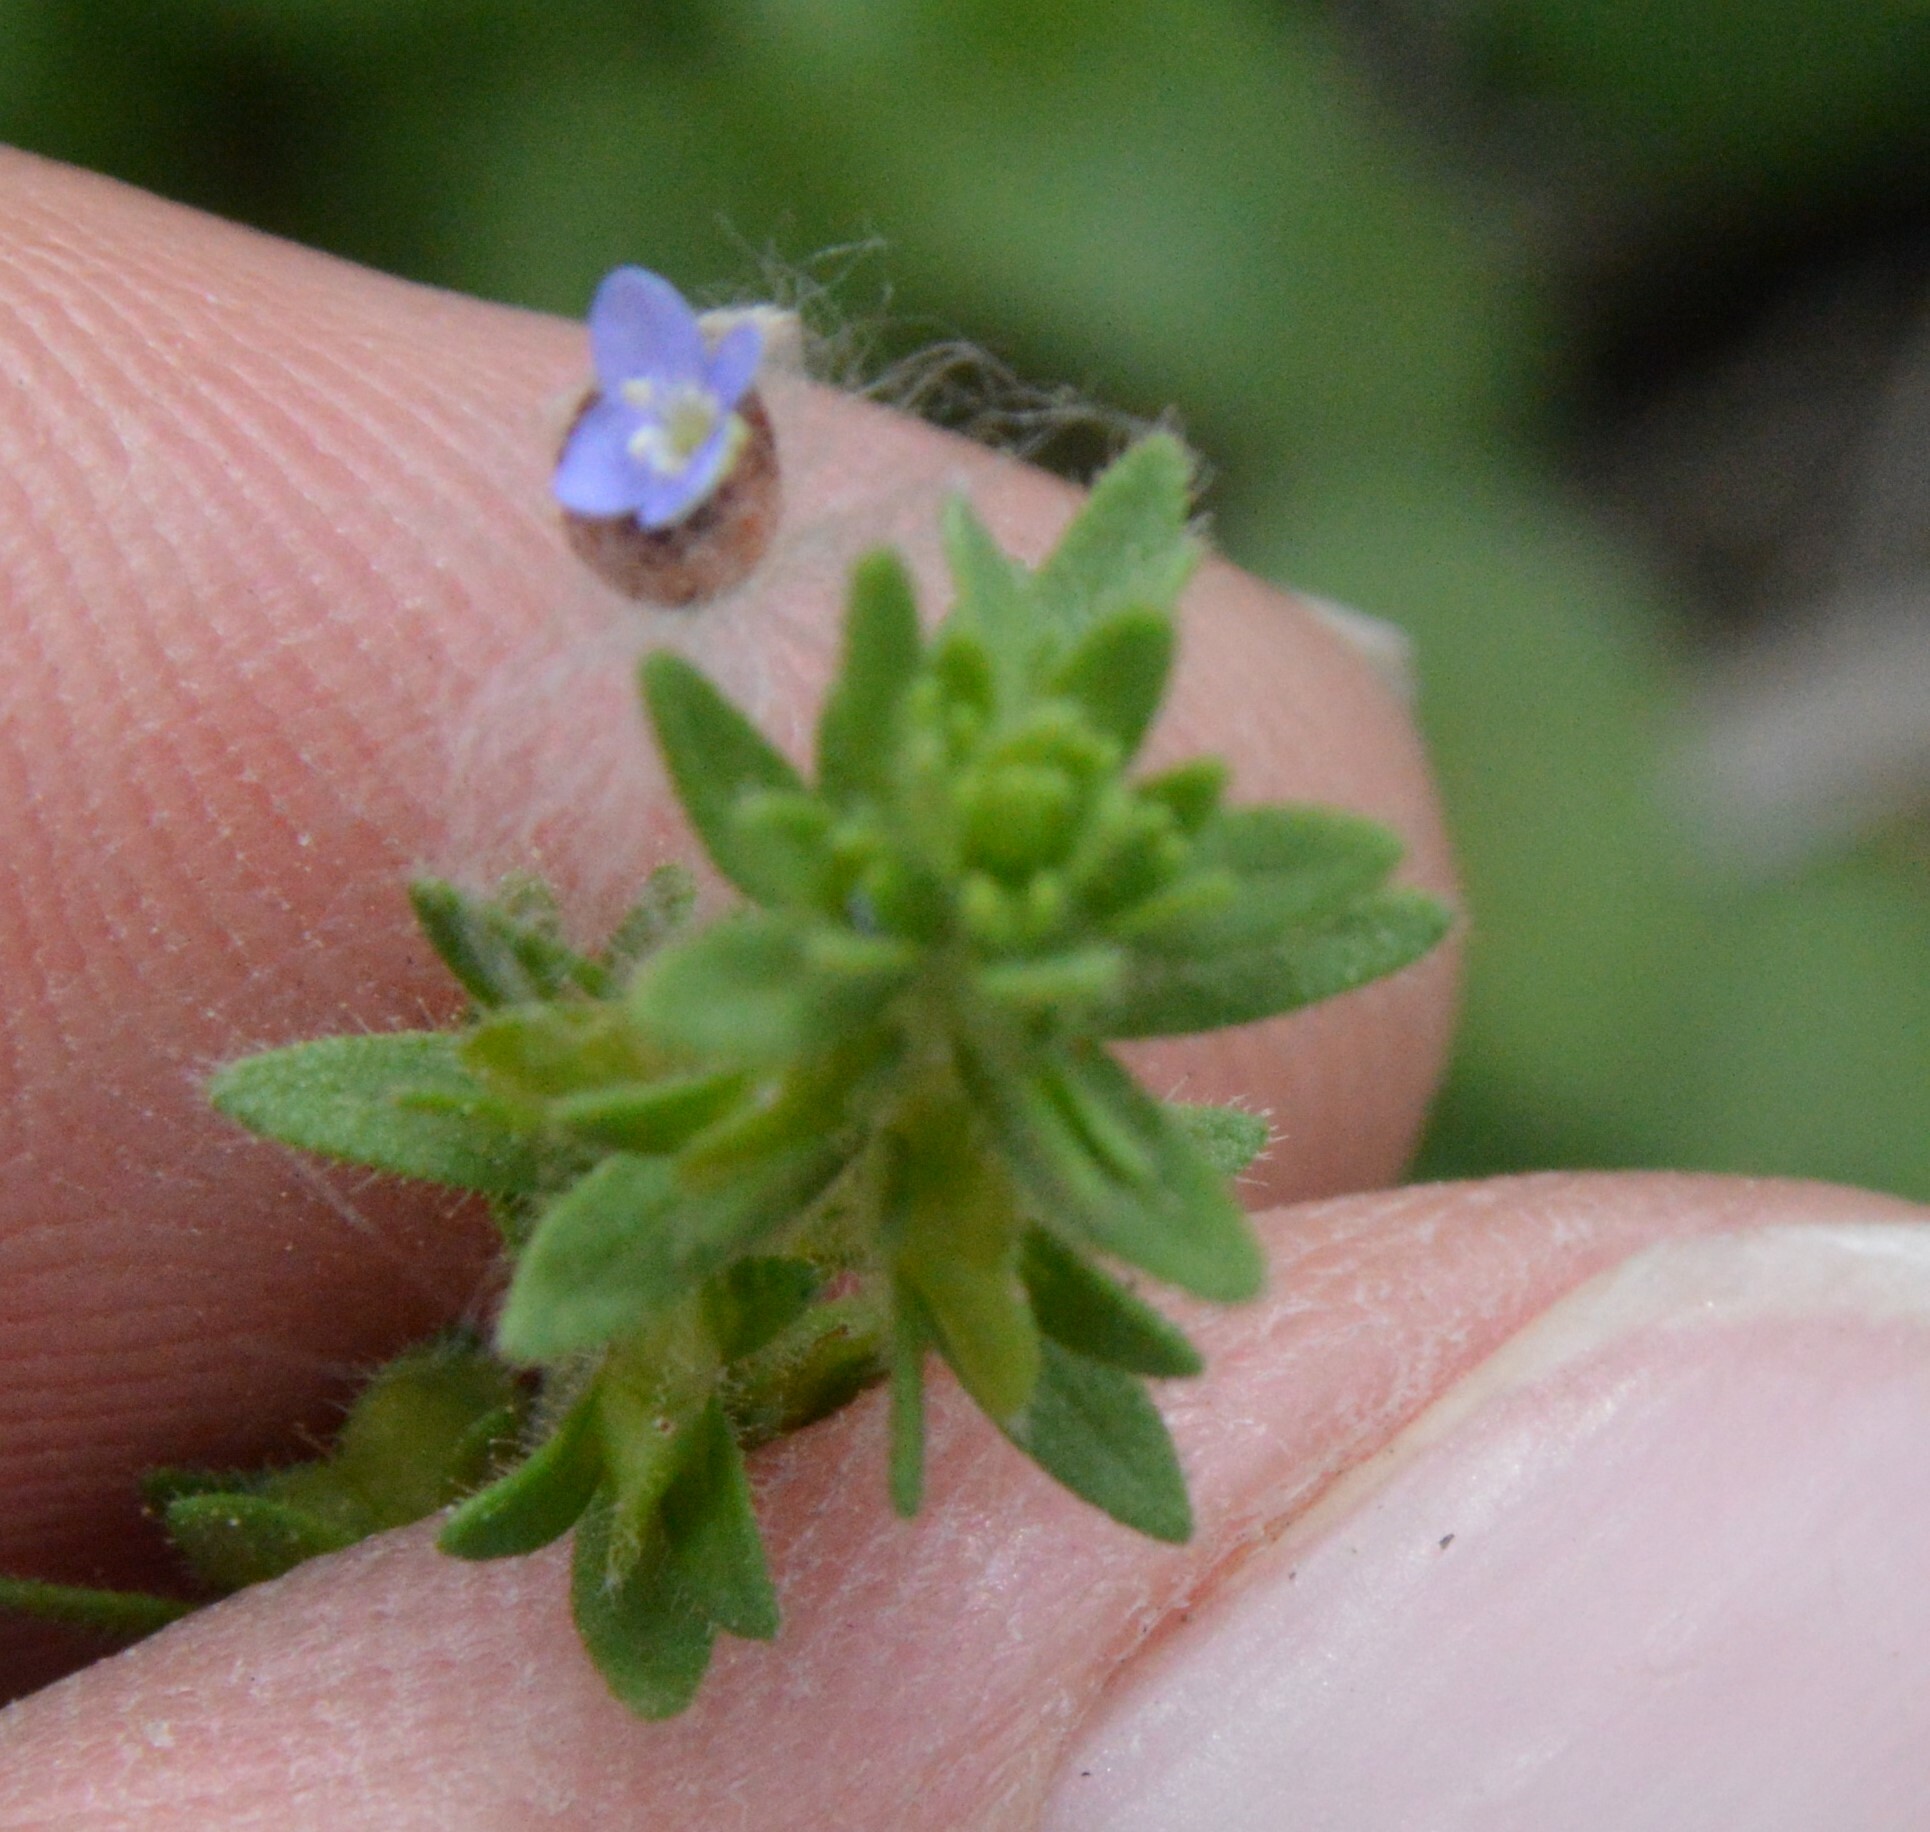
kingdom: Plantae
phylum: Tracheophyta
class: Magnoliopsida
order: Lamiales
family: Plantaginaceae
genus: Veronica
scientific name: Veronica arvensis
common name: Corn speedwell
